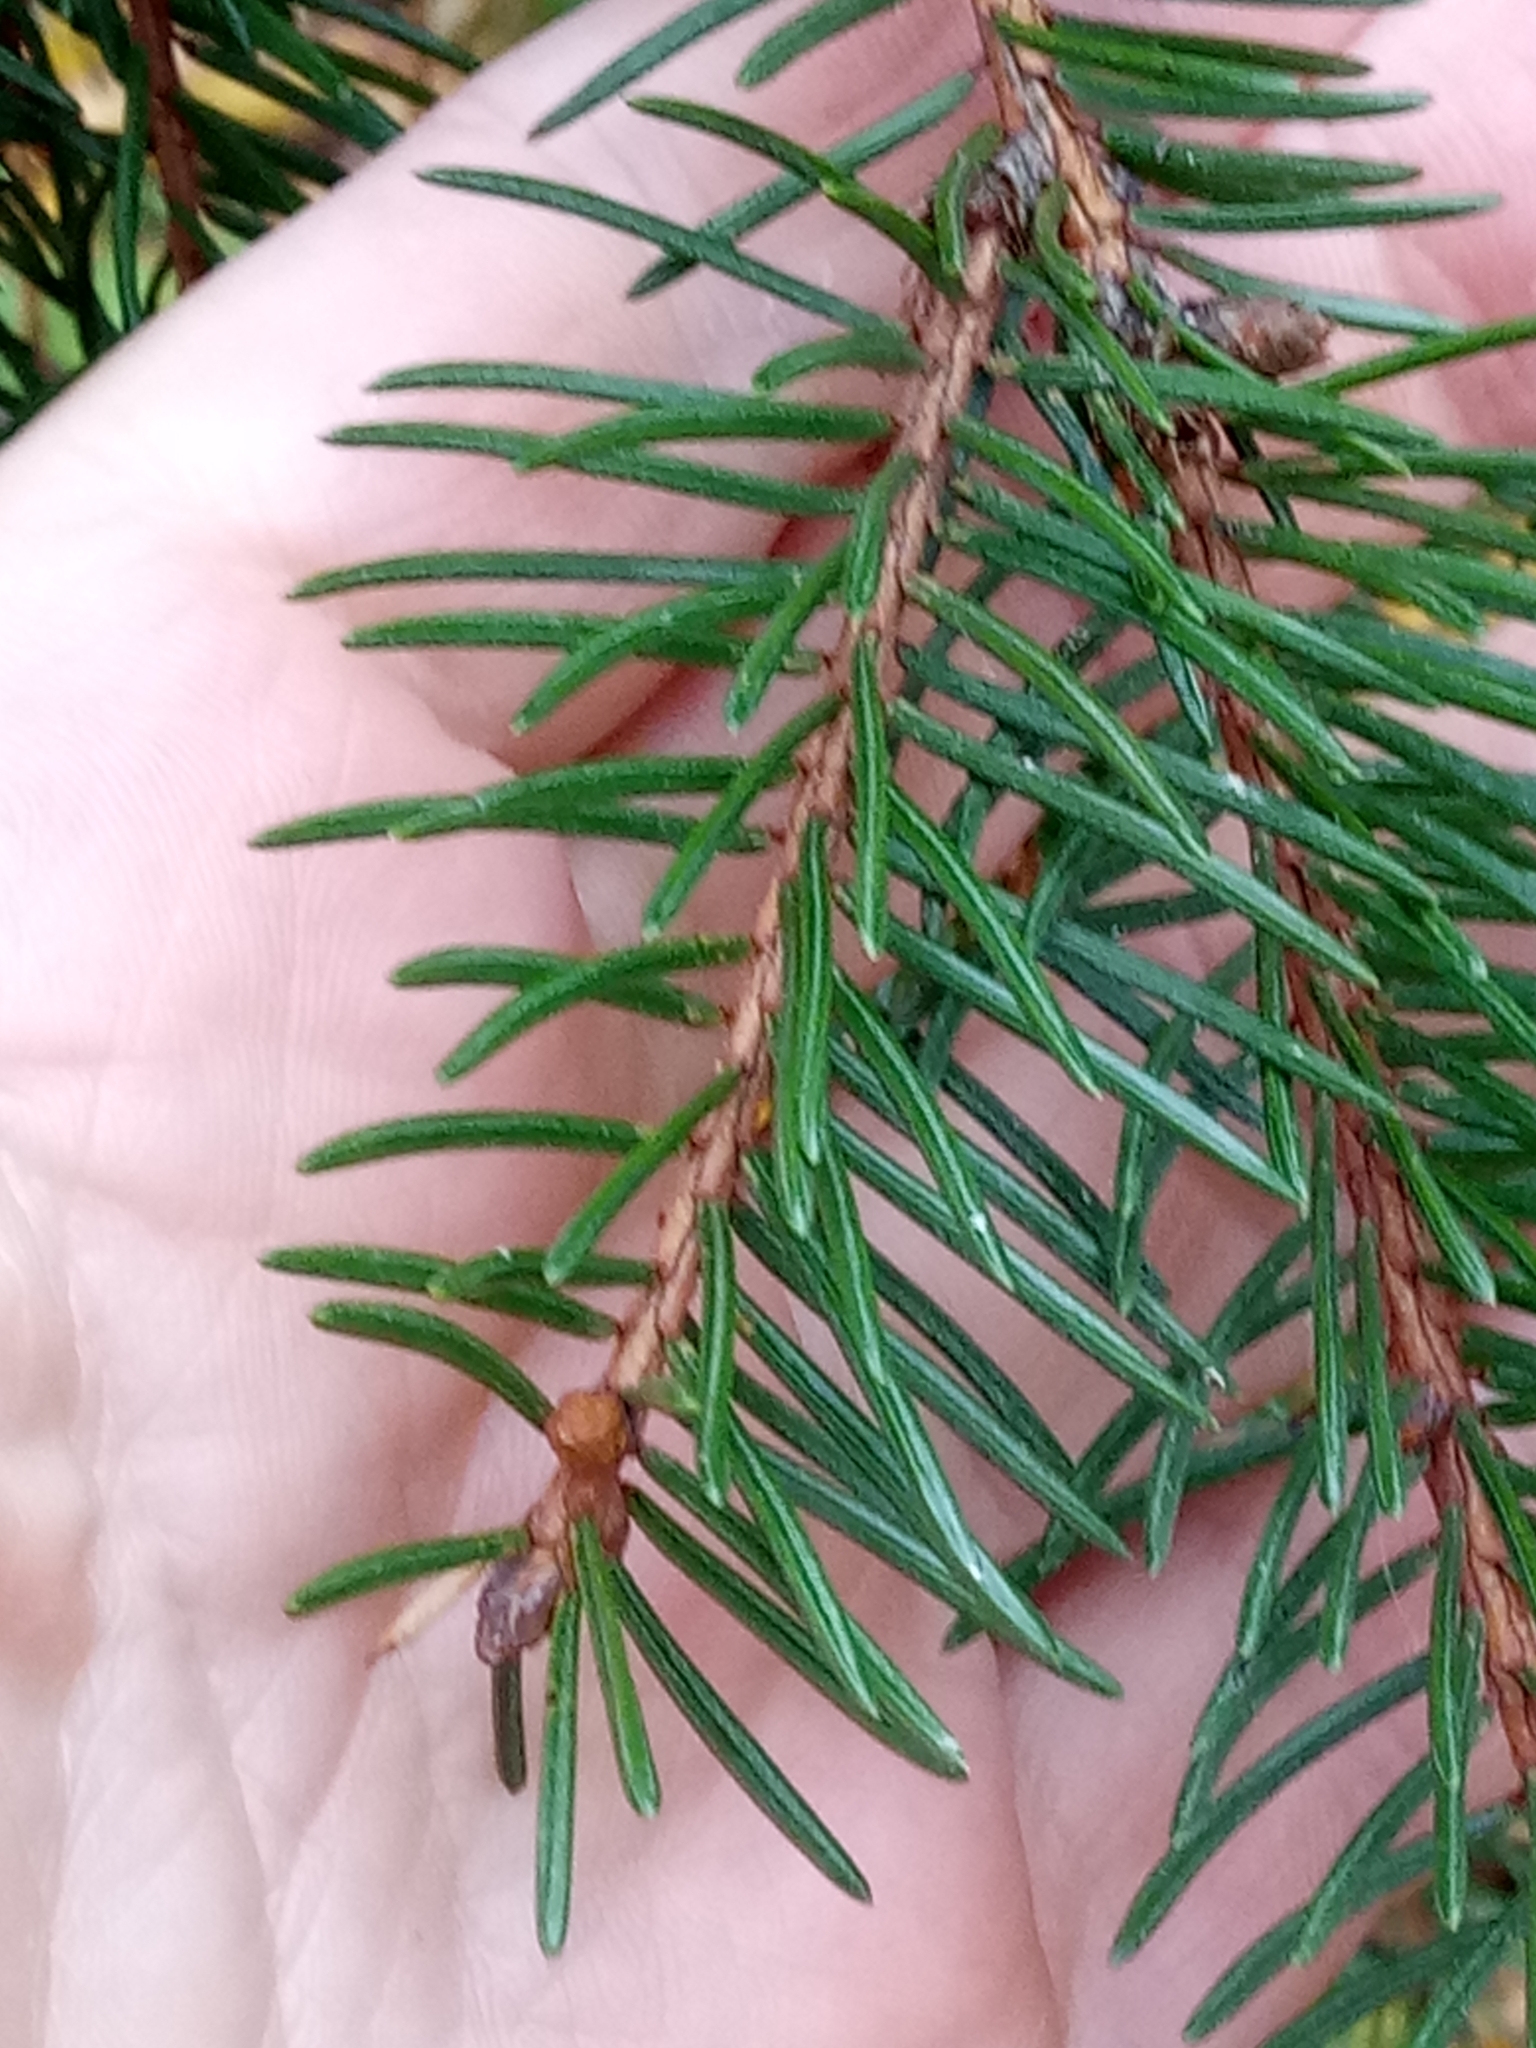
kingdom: Plantae
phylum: Tracheophyta
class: Pinopsida
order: Pinales
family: Pinaceae
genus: Picea
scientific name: Picea abies
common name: Norway spruce
